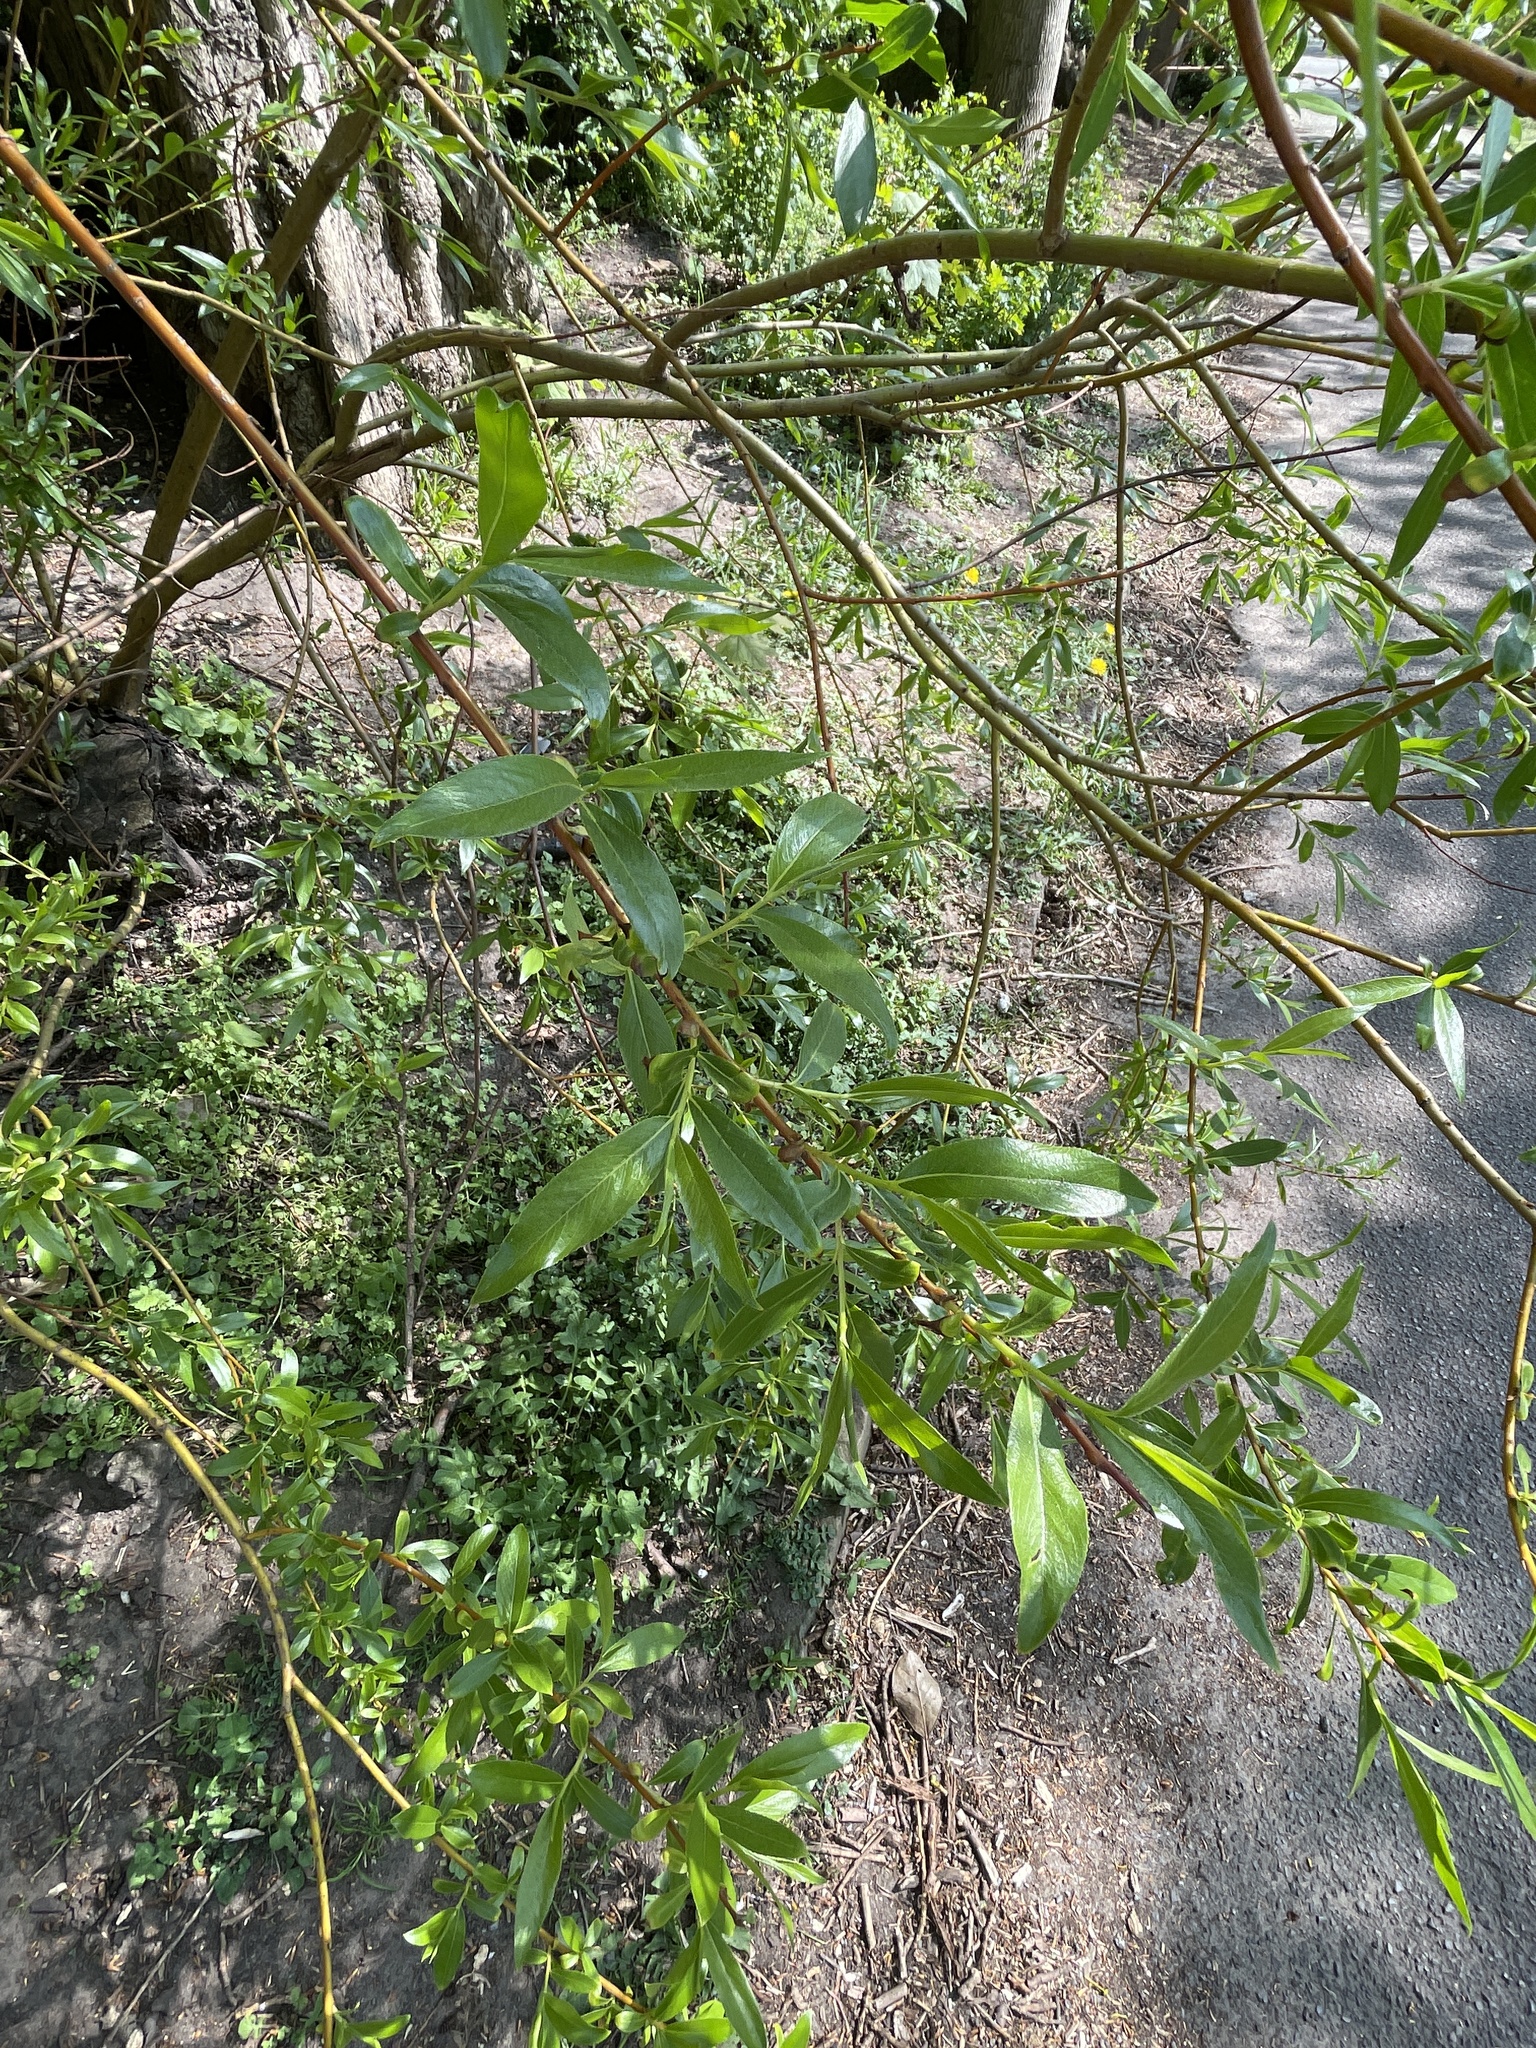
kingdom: Plantae
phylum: Tracheophyta
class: Magnoliopsida
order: Malpighiales
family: Salicaceae
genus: Salix
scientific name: Salix fragilis
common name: Crack willow
